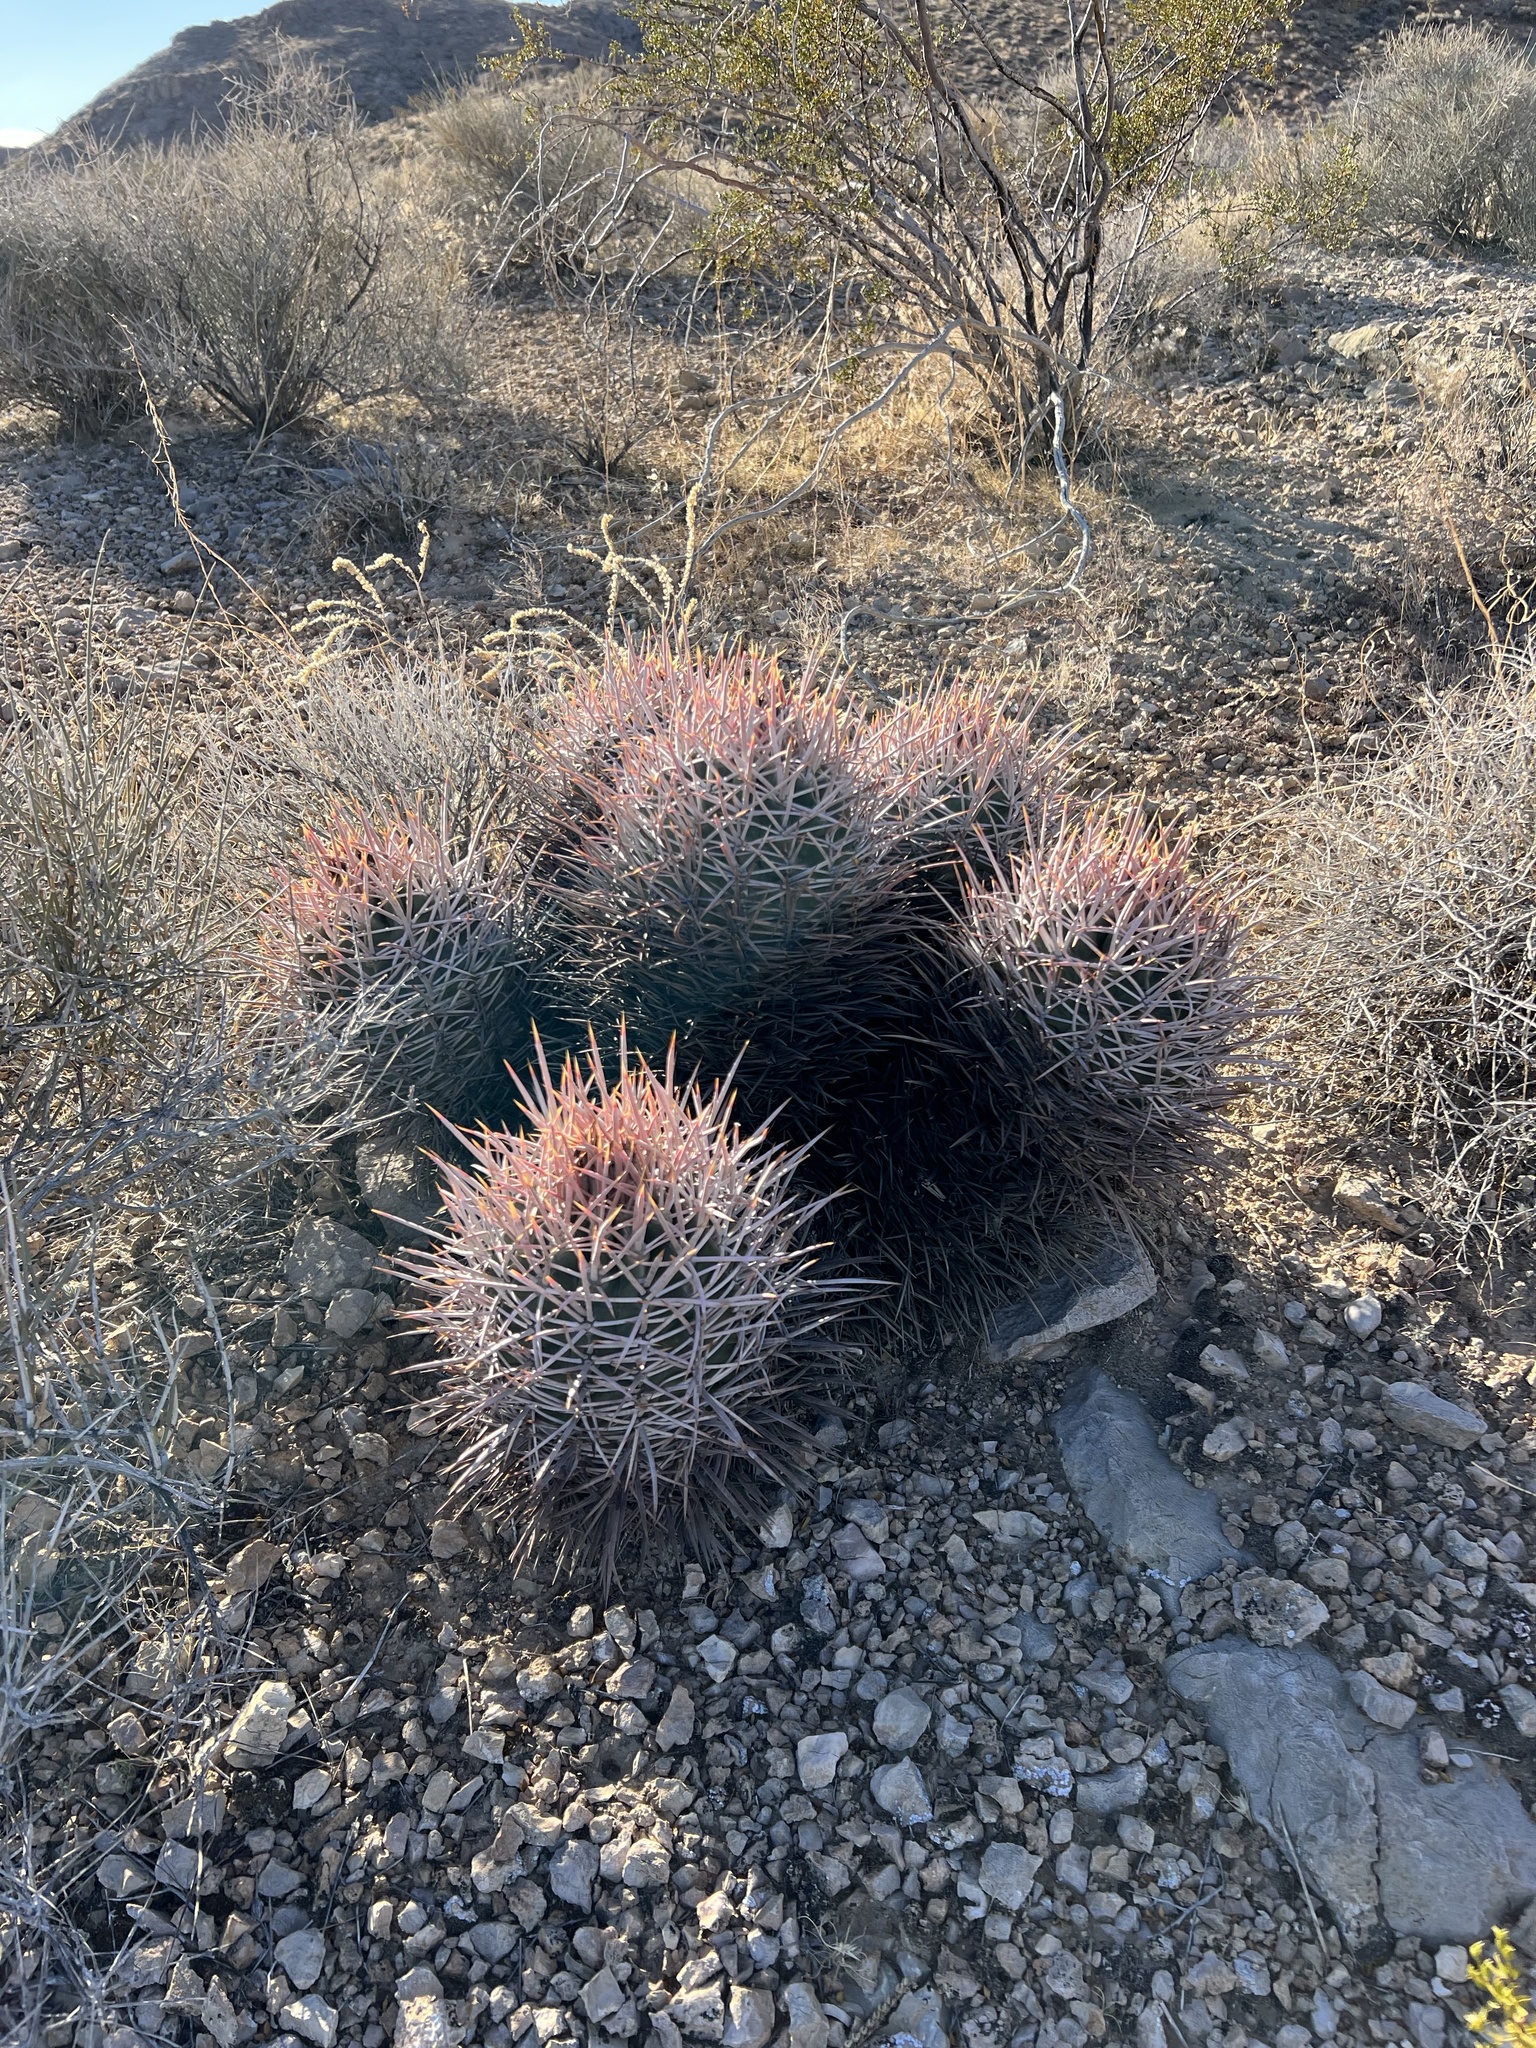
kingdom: Plantae
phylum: Tracheophyta
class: Magnoliopsida
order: Caryophyllales
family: Cactaceae
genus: Echinocactus
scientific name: Echinocactus polycephalus
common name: Cottontop cactus
